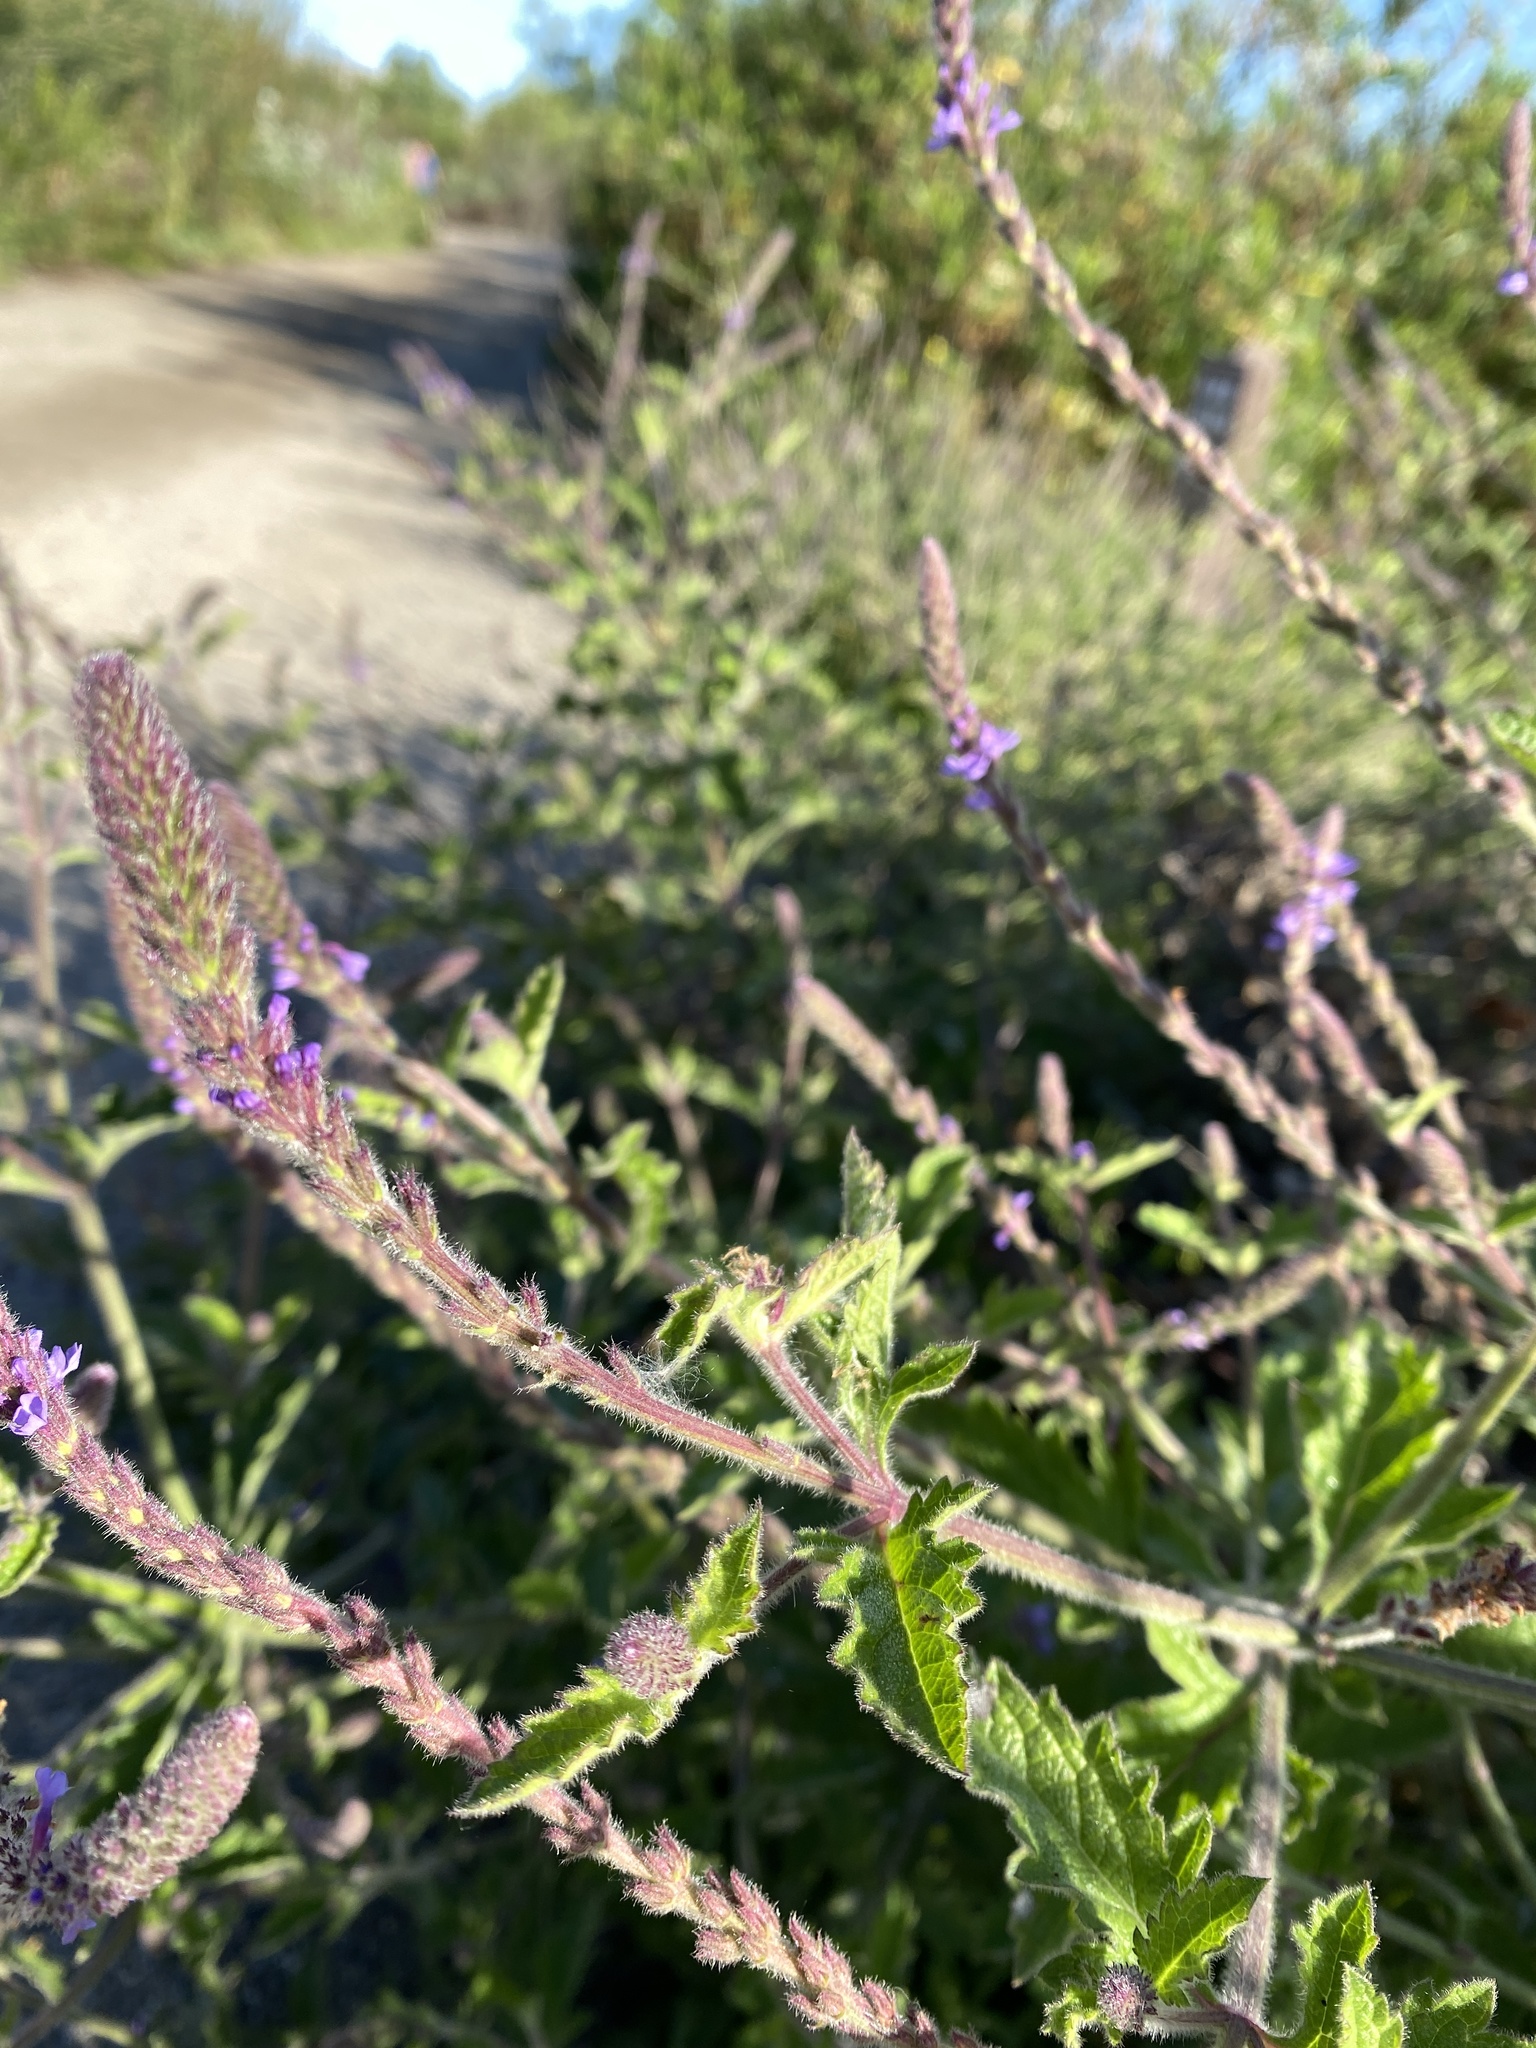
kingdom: Plantae
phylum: Tracheophyta
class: Magnoliopsida
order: Lamiales
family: Verbenaceae
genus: Verbena
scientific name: Verbena lasiostachys
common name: Vervain
